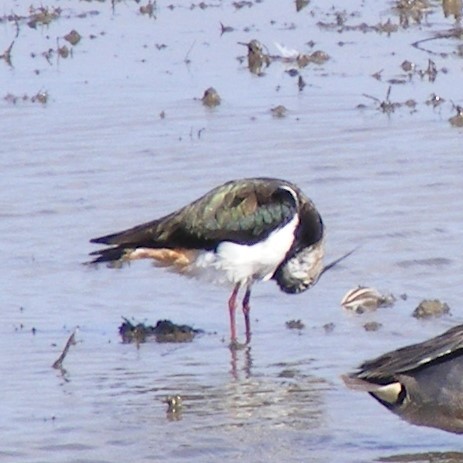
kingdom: Animalia
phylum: Chordata
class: Aves
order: Charadriiformes
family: Charadriidae
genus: Vanellus
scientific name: Vanellus vanellus
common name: Northern lapwing
